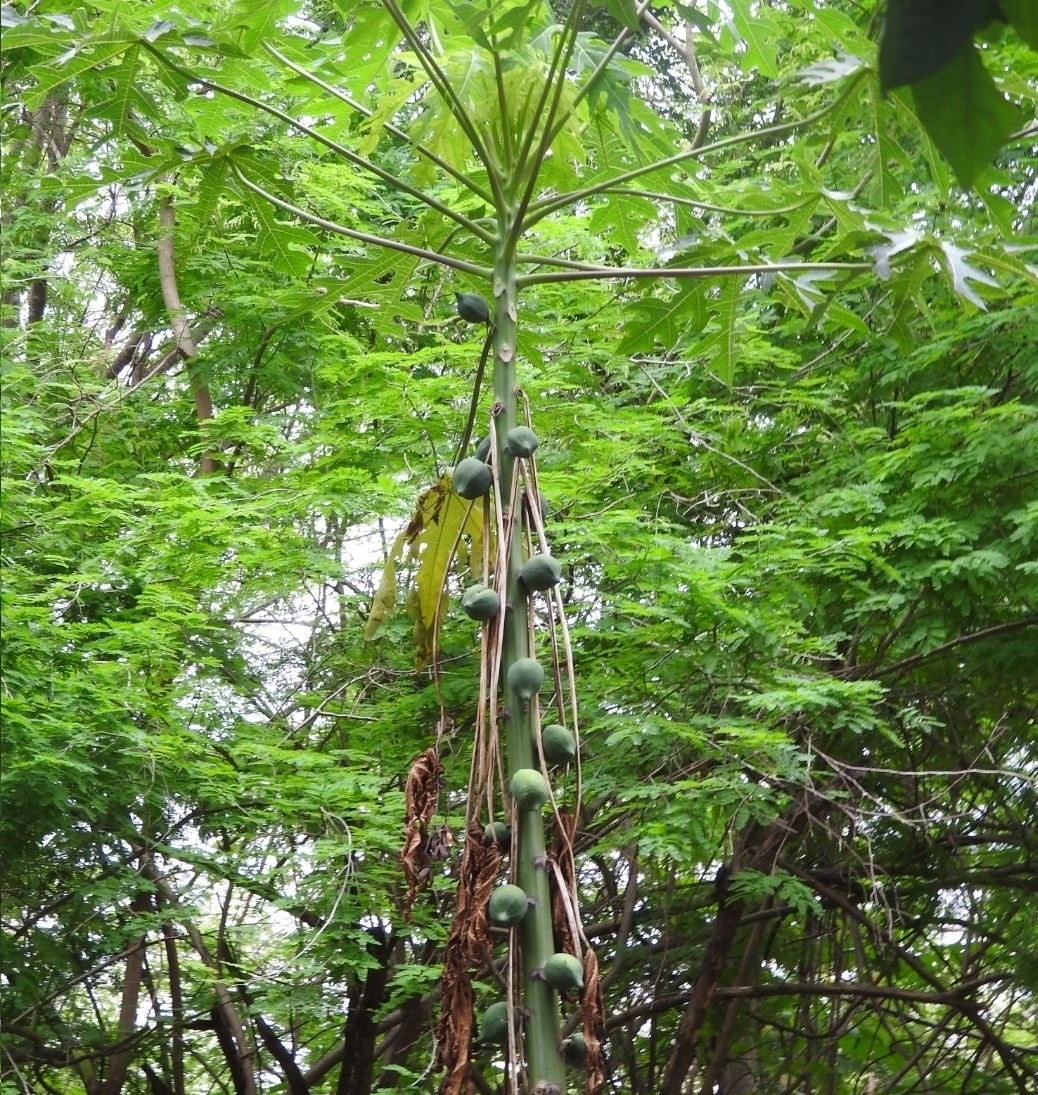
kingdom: Plantae
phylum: Tracheophyta
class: Magnoliopsida
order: Brassicales
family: Caricaceae
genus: Carica
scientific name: Carica papaya
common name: Papaya
